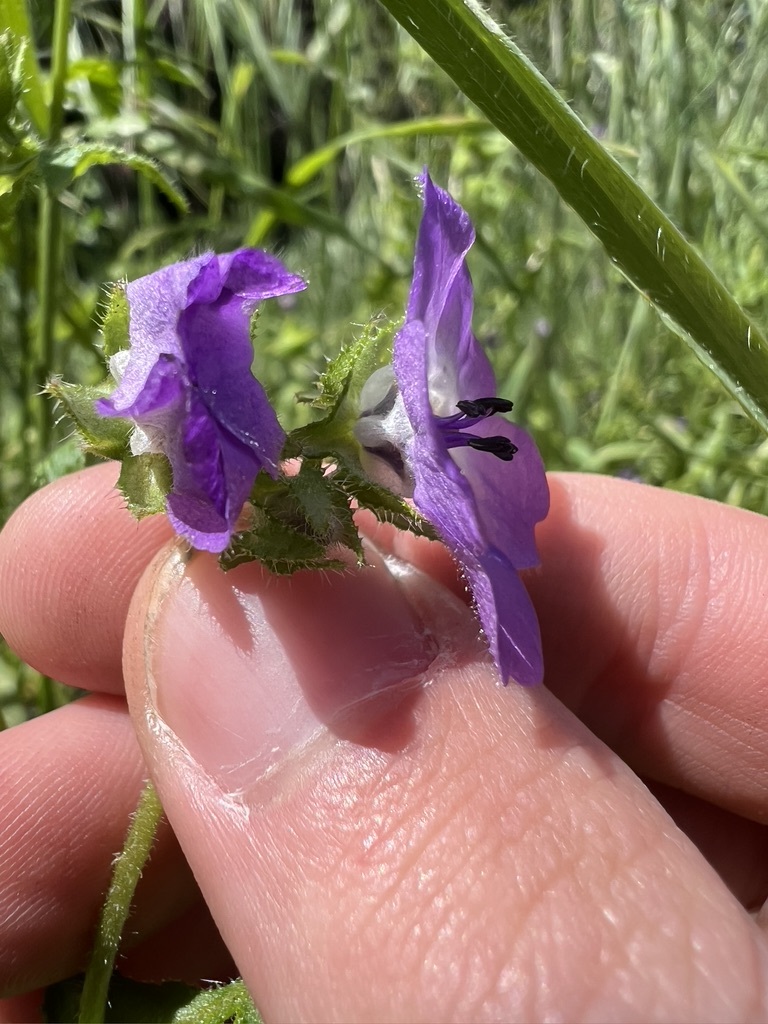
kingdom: Plantae
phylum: Tracheophyta
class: Magnoliopsida
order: Boraginales
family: Hydrophyllaceae
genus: Pholistoma
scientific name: Pholistoma auritum
